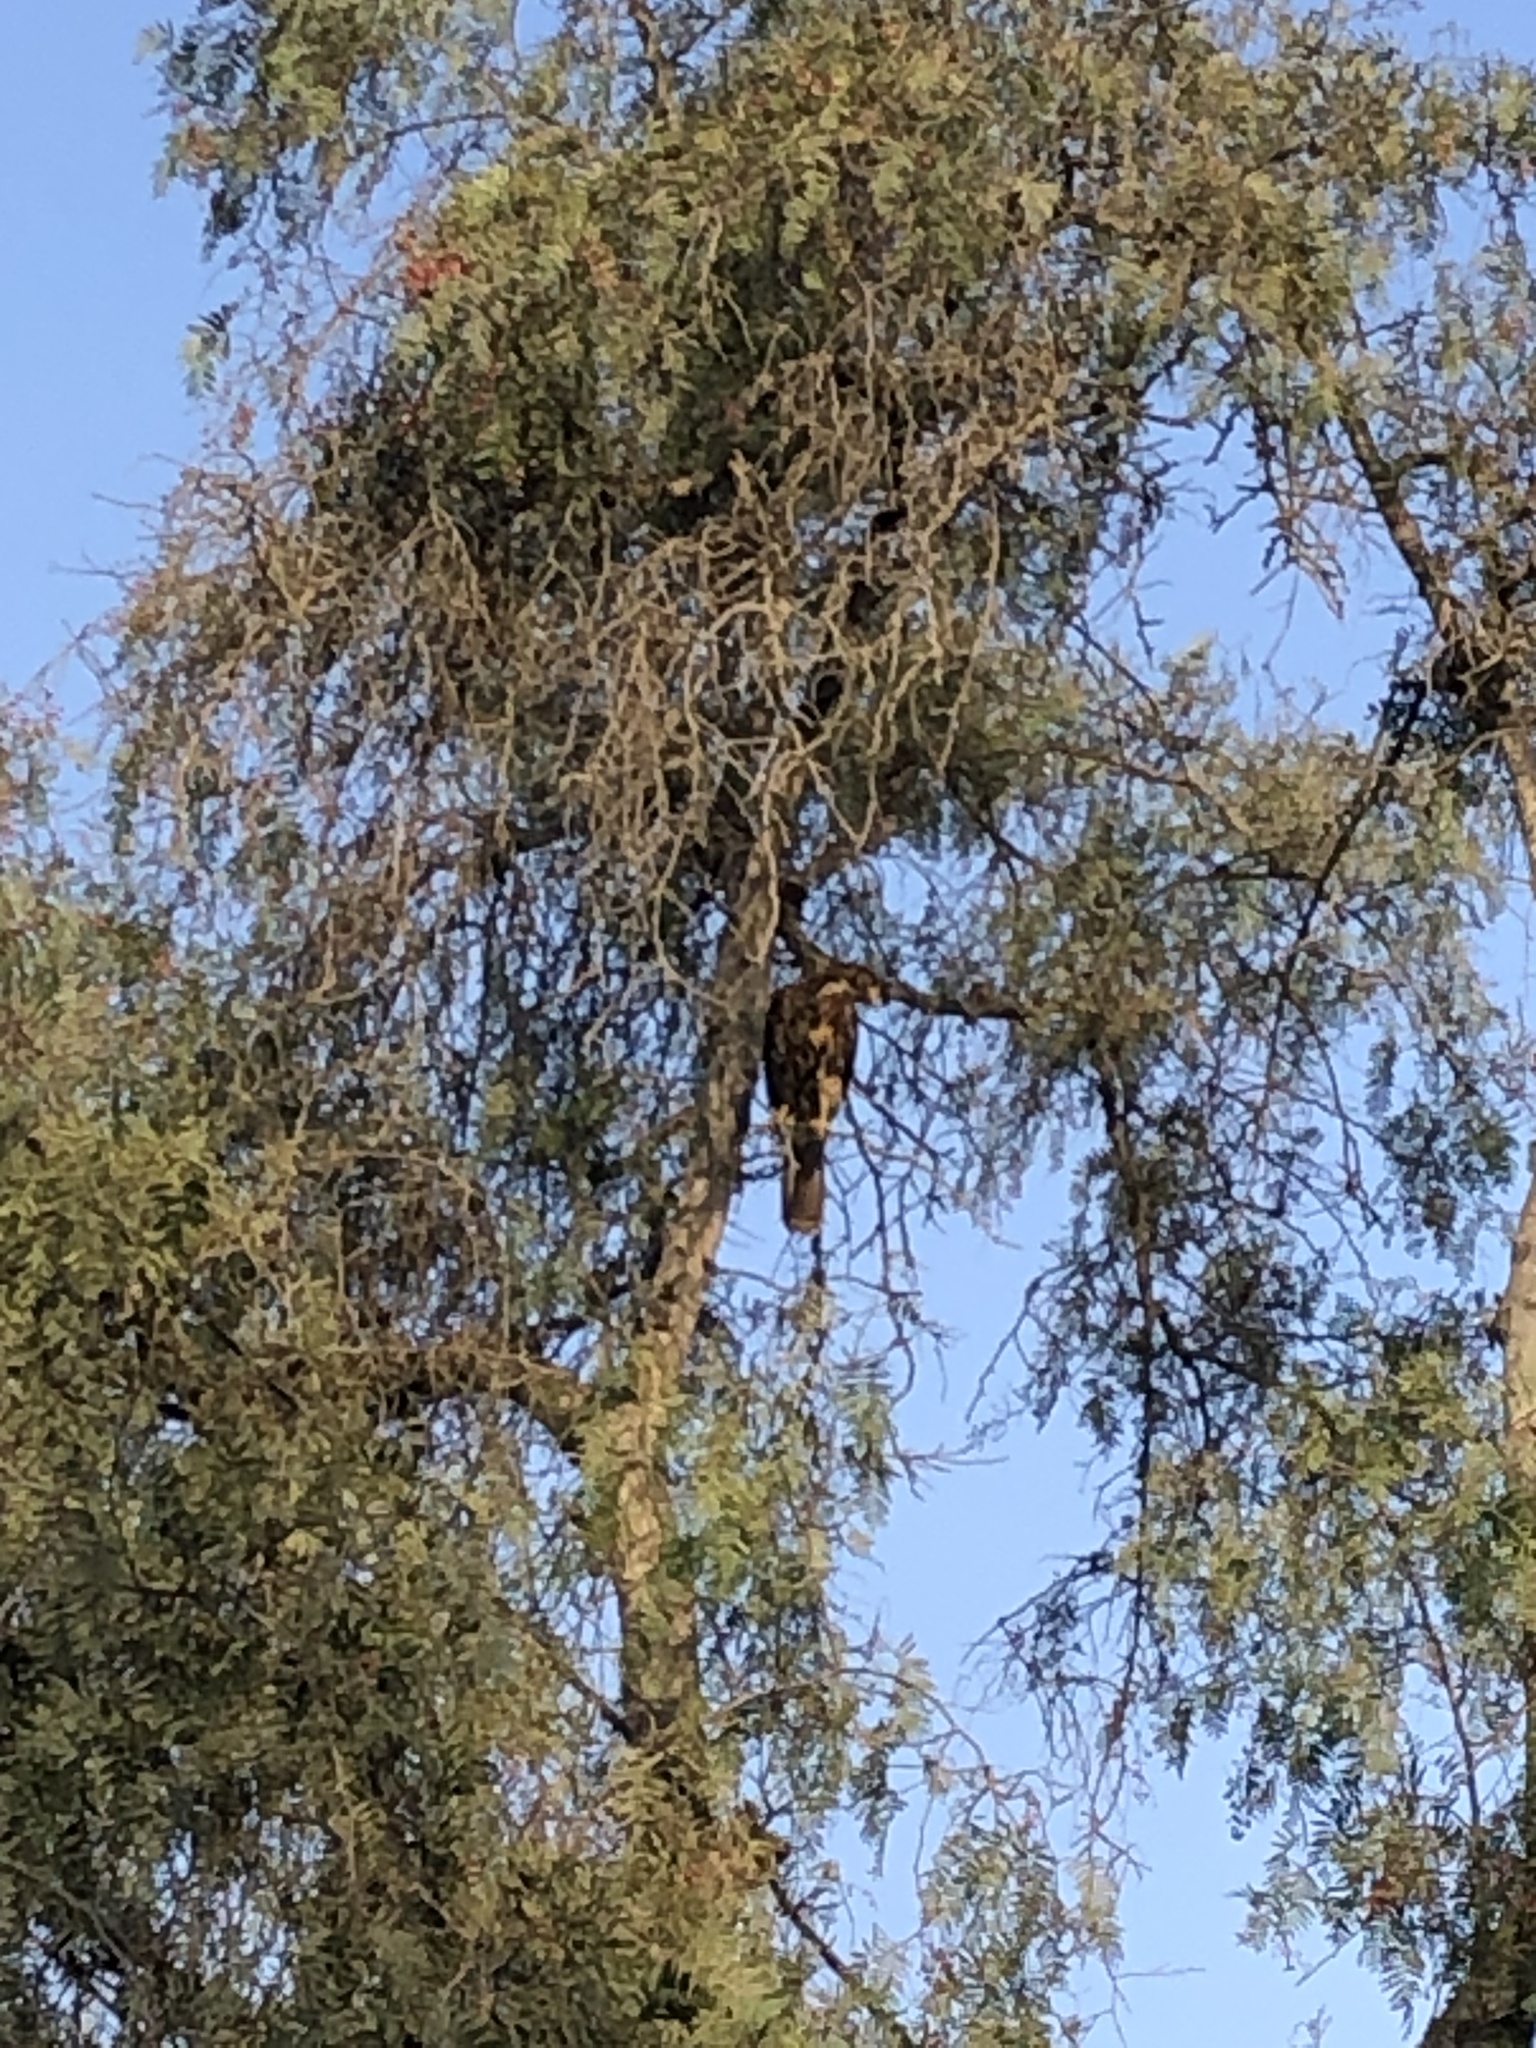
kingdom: Animalia
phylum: Chordata
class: Aves
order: Accipitriformes
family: Accipitridae
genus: Parabuteo
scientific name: Parabuteo unicinctus
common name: Harris's hawk
